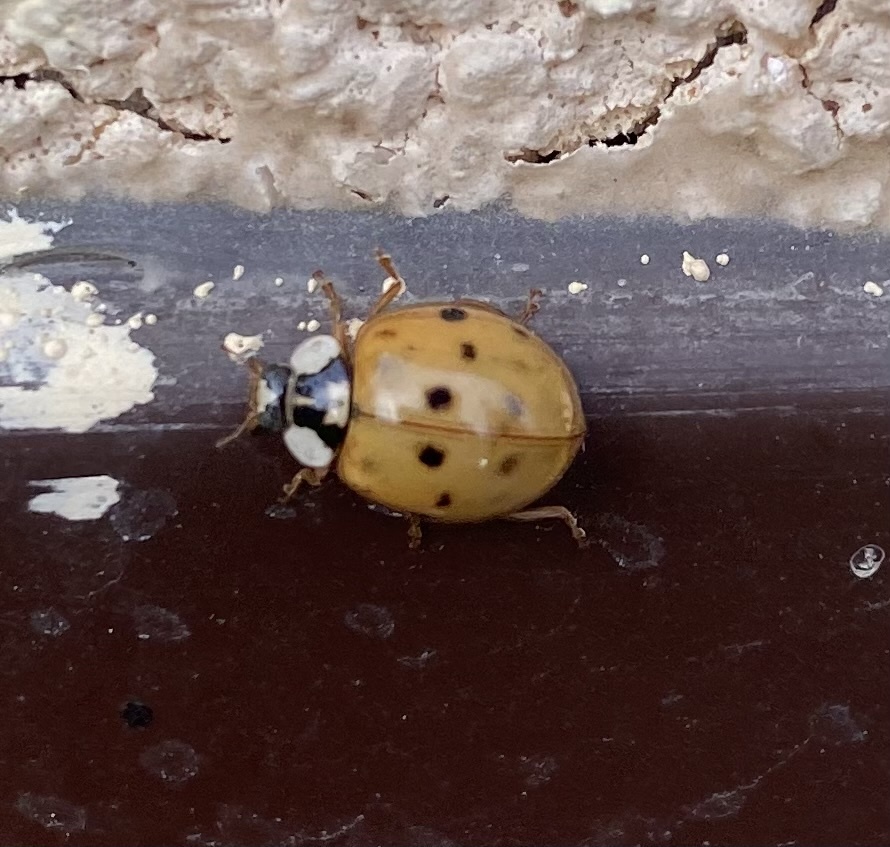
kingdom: Animalia
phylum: Arthropoda
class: Insecta
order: Coleoptera
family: Coccinellidae
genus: Harmonia
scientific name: Harmonia axyridis
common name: Harlequin ladybird
